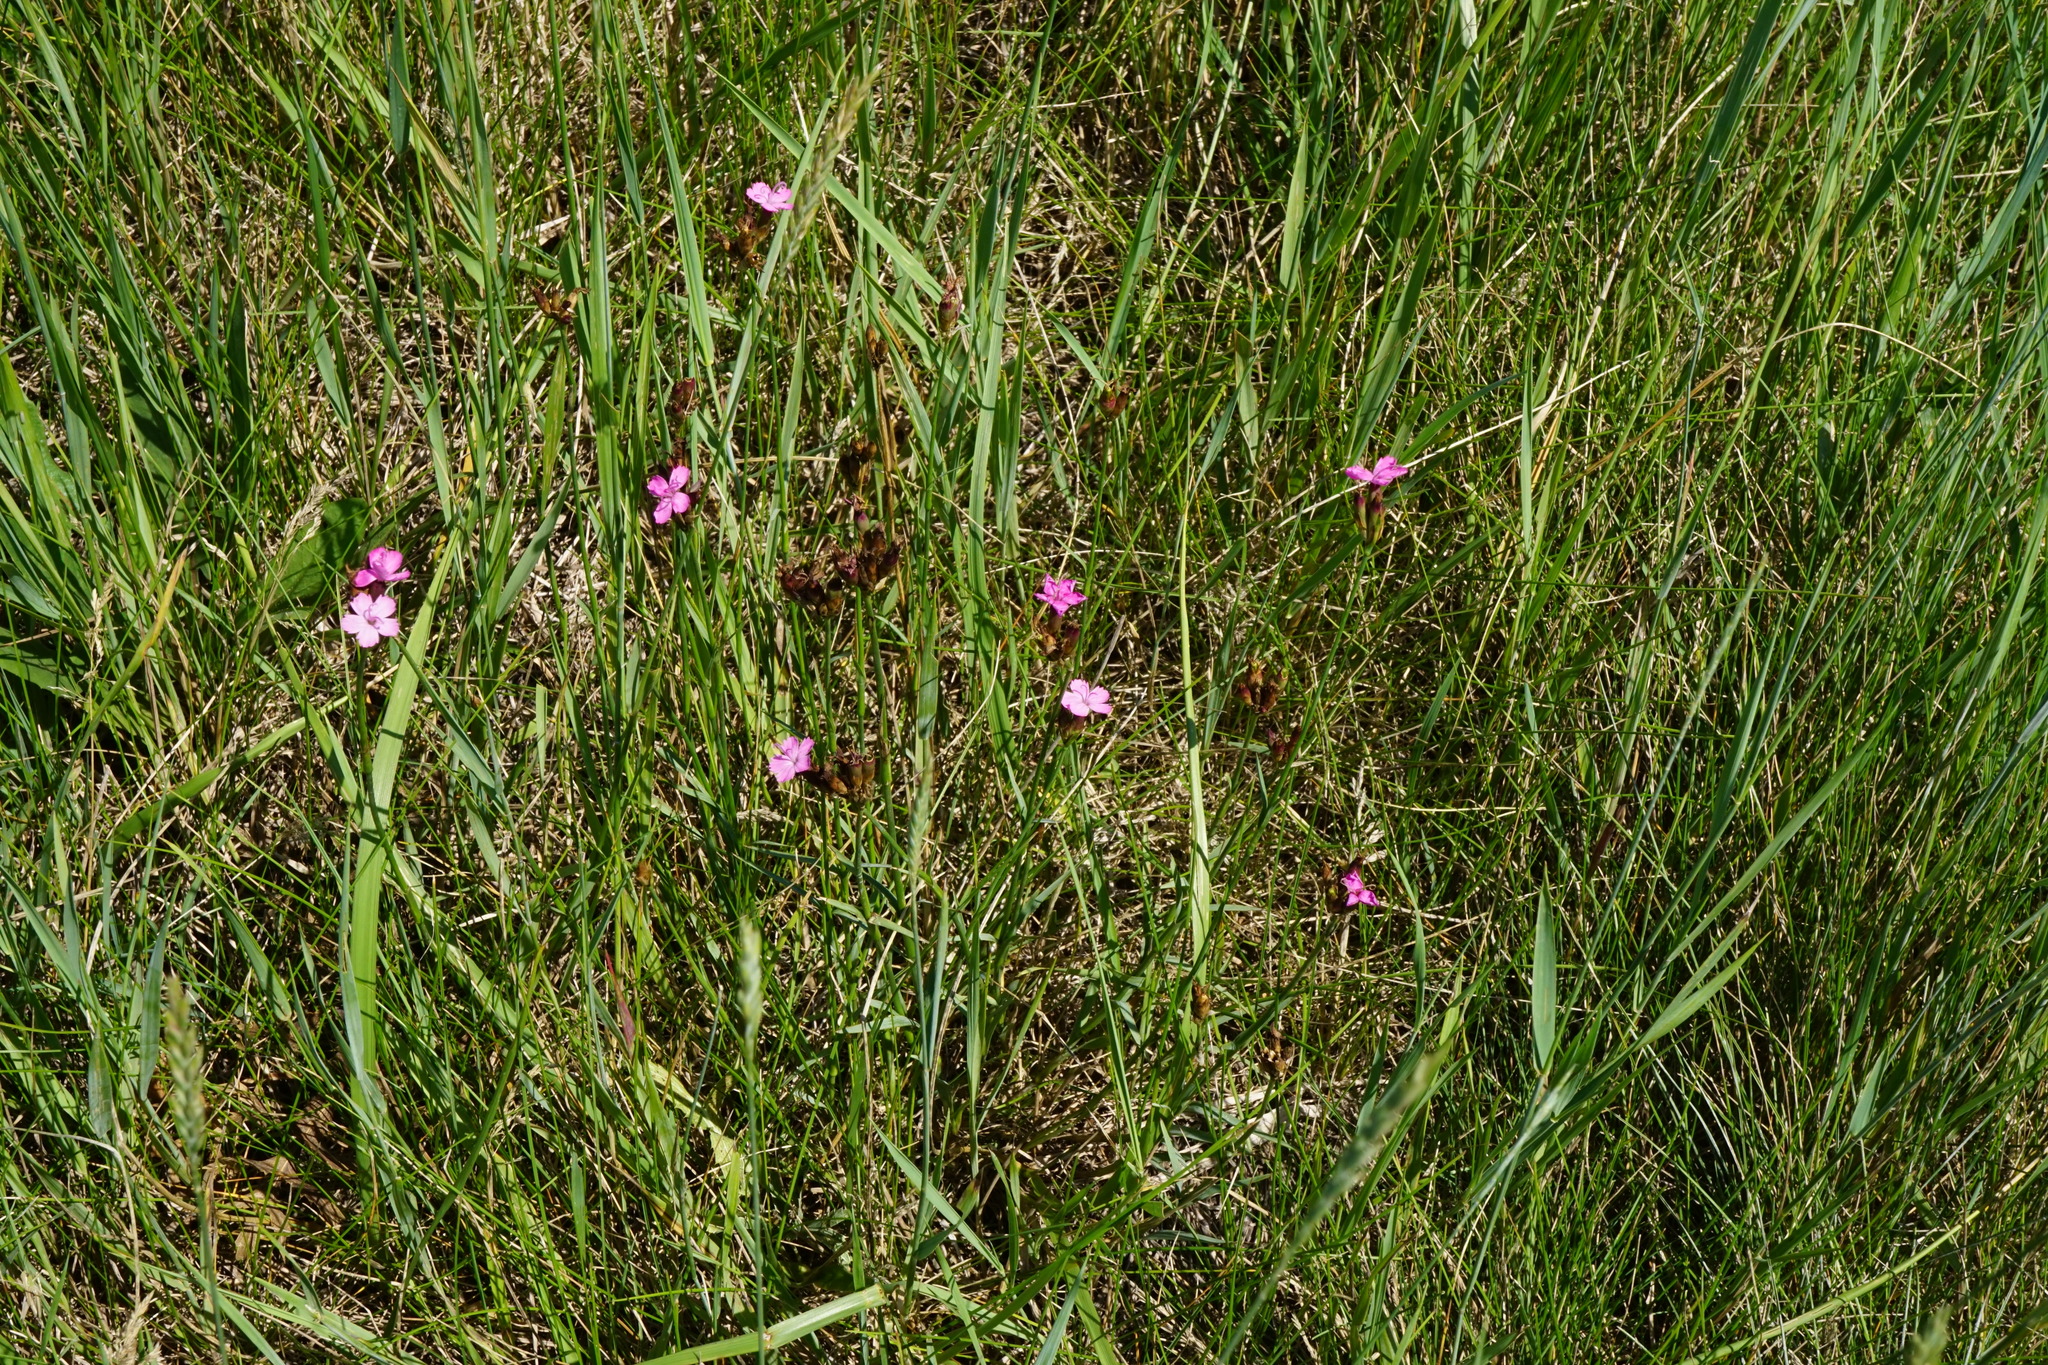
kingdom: Plantae
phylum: Tracheophyta
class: Magnoliopsida
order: Caryophyllales
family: Caryophyllaceae
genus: Dianthus
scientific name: Dianthus pontederae
